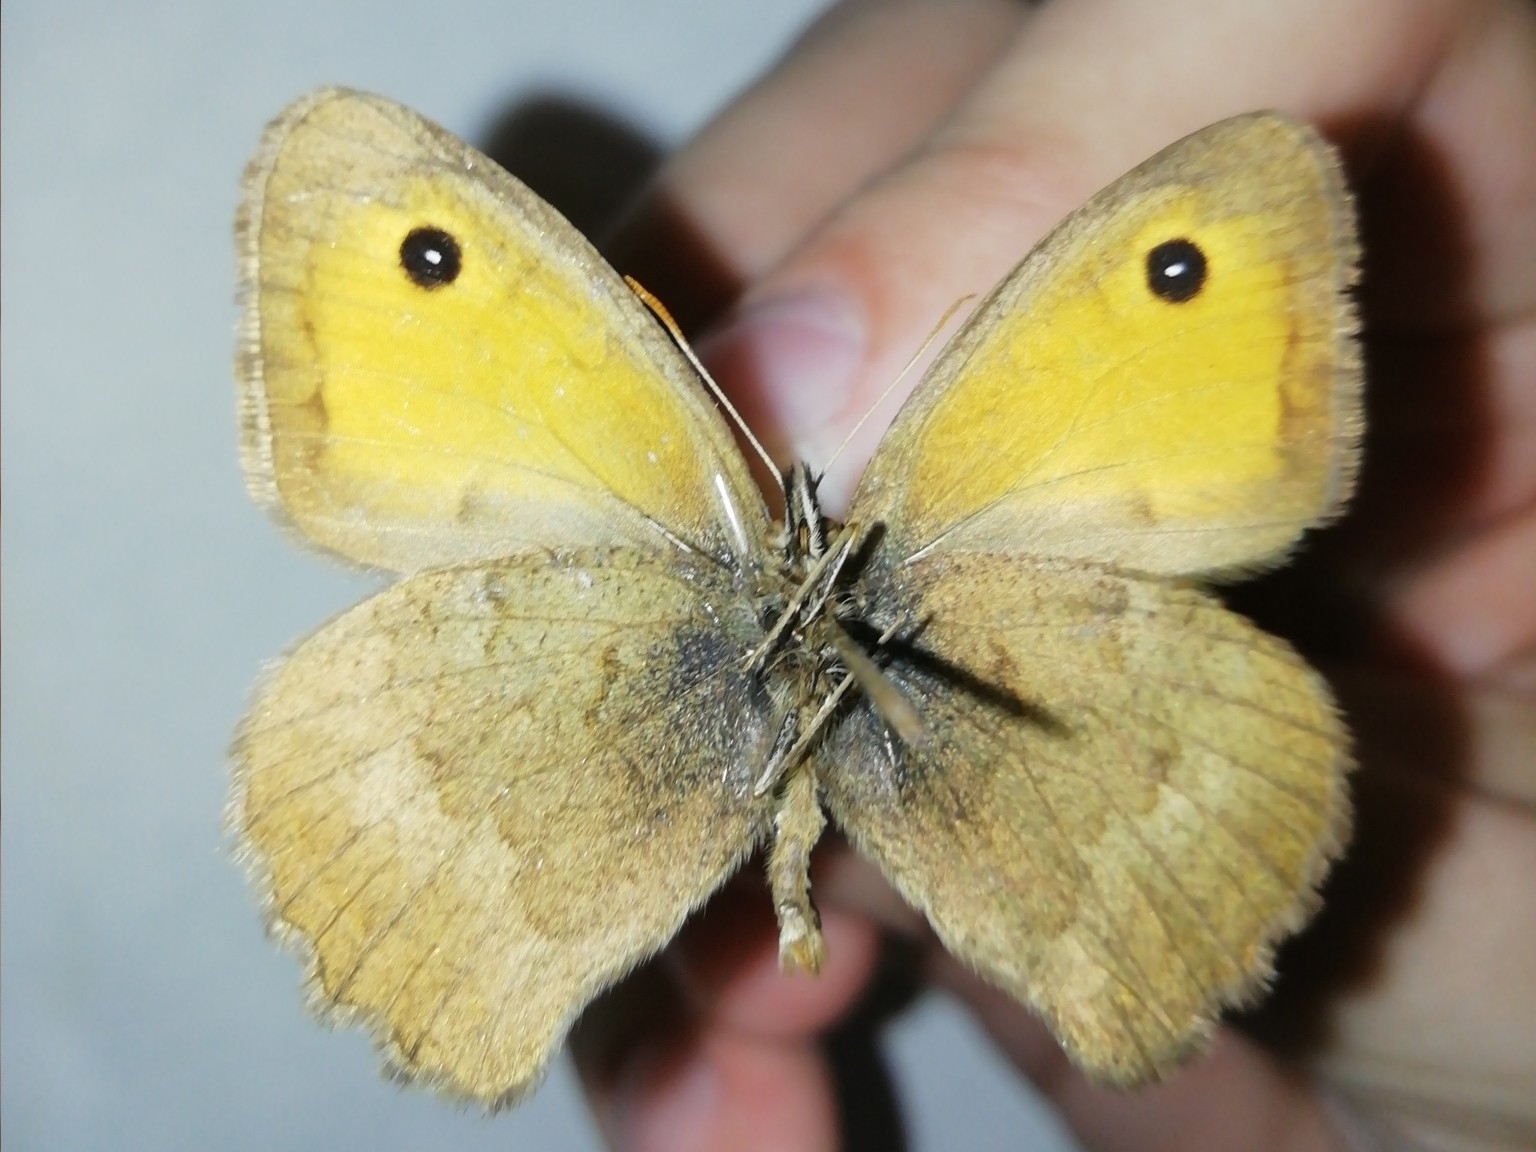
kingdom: Animalia
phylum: Arthropoda
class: Insecta
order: Lepidoptera
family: Nymphalidae
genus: Hyponephele
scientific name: Hyponephele lycaon
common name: Dusky meadow brown
